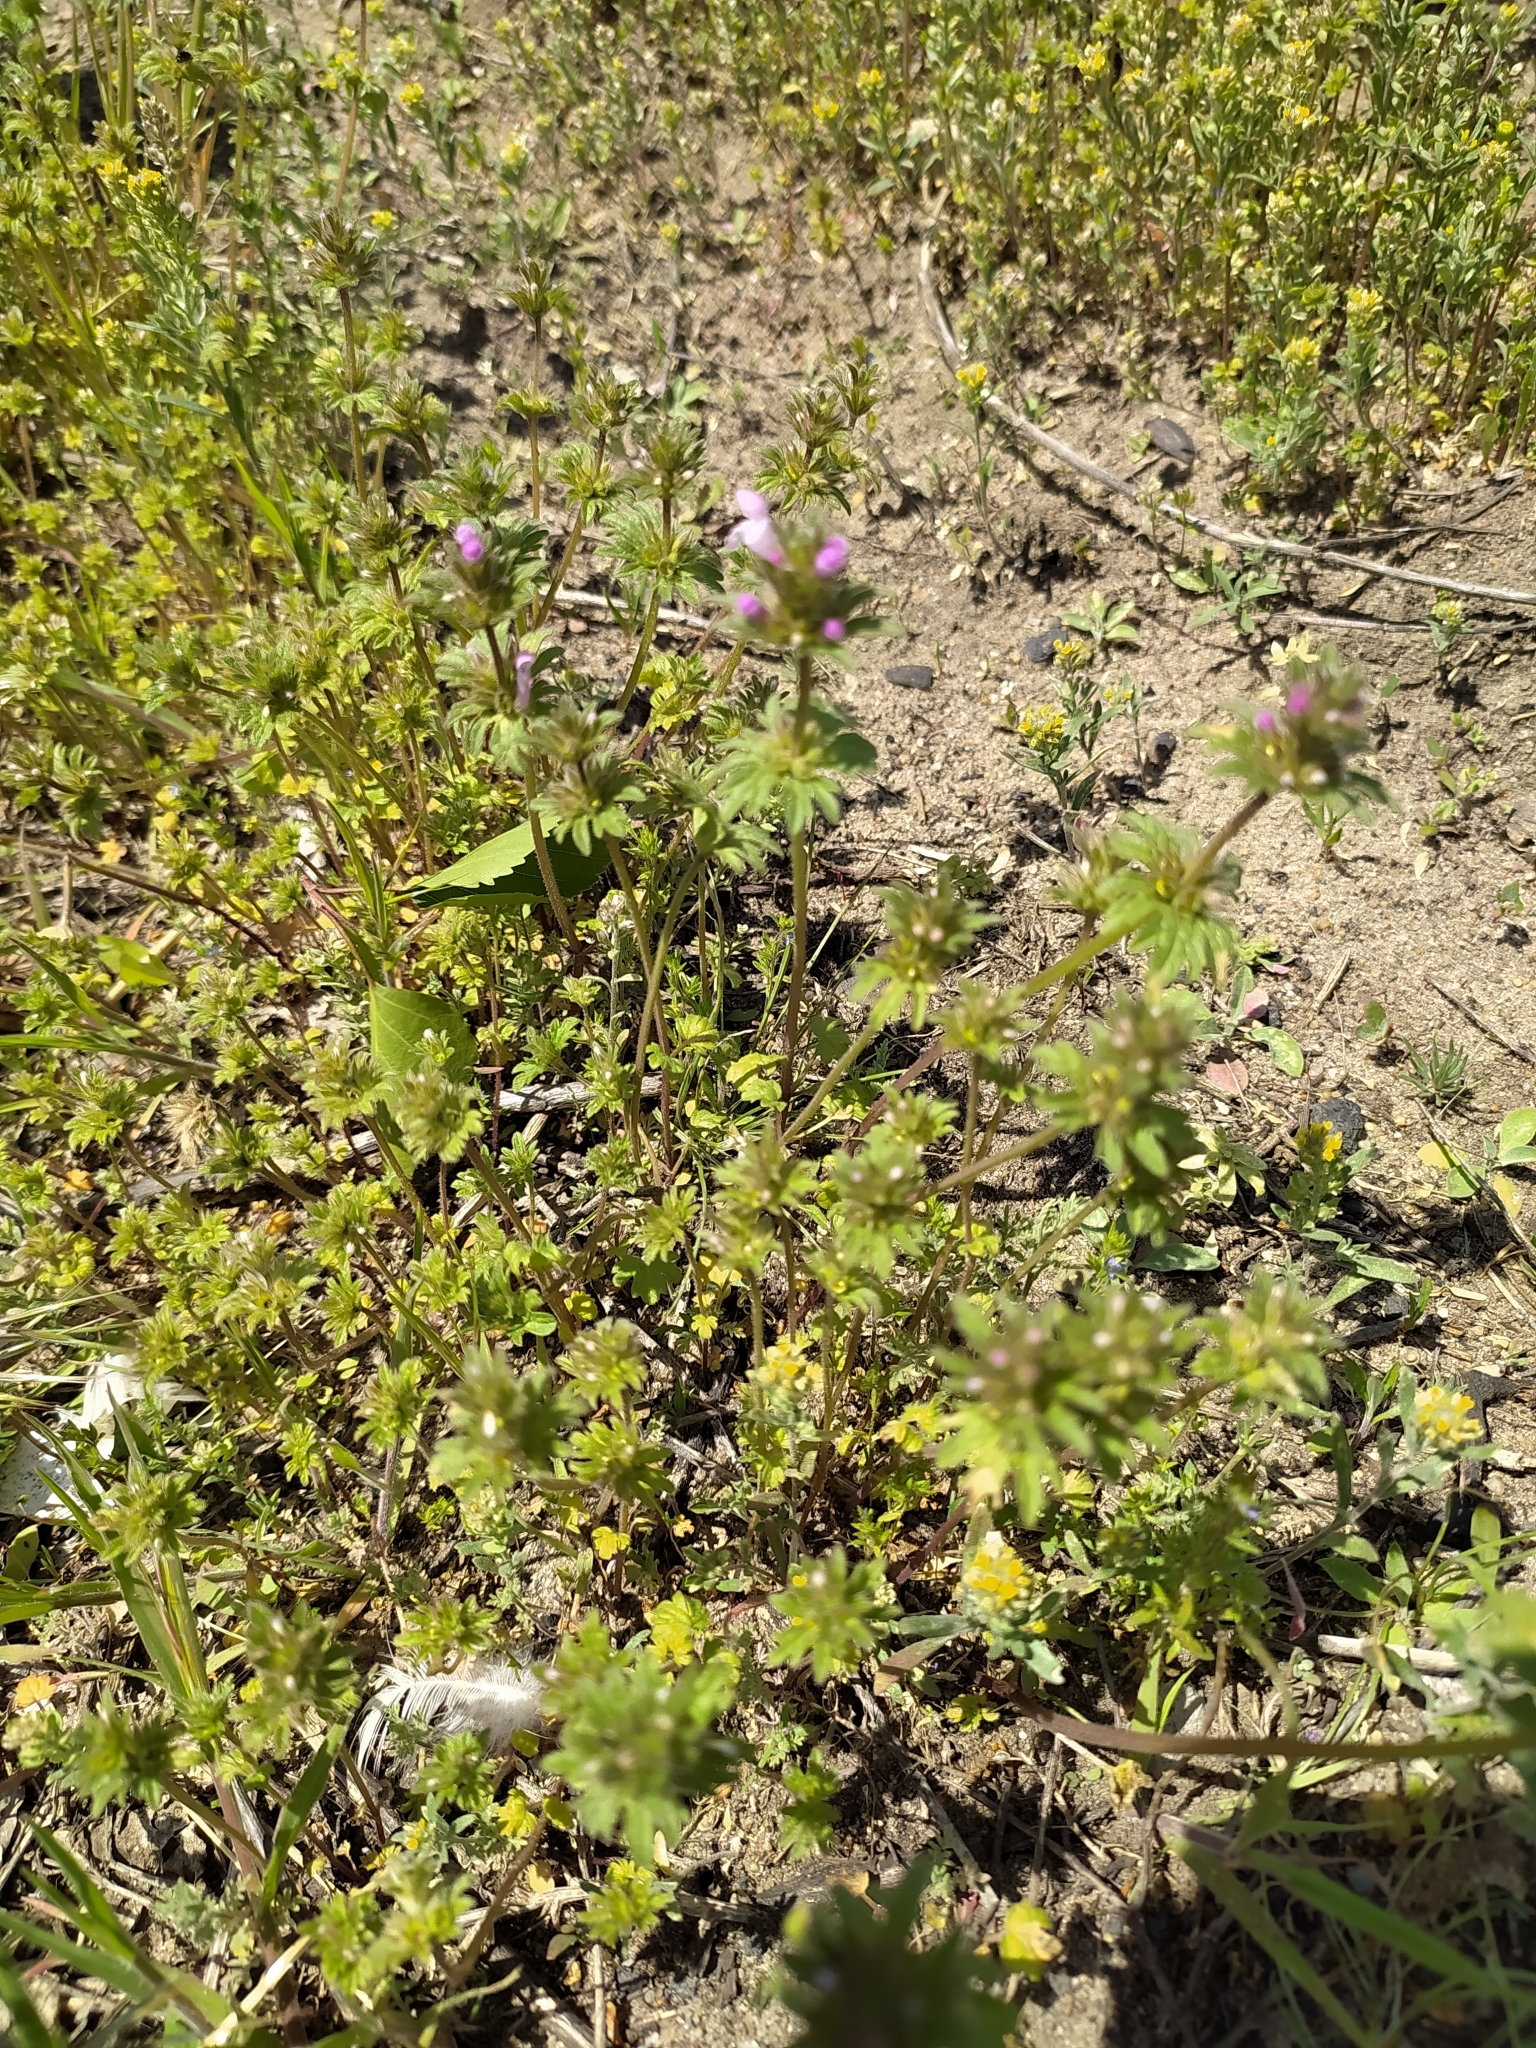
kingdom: Plantae
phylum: Tracheophyta
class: Magnoliopsida
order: Lamiales
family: Lamiaceae
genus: Lamium
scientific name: Lamium amplexicaule
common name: Henbit dead-nettle
